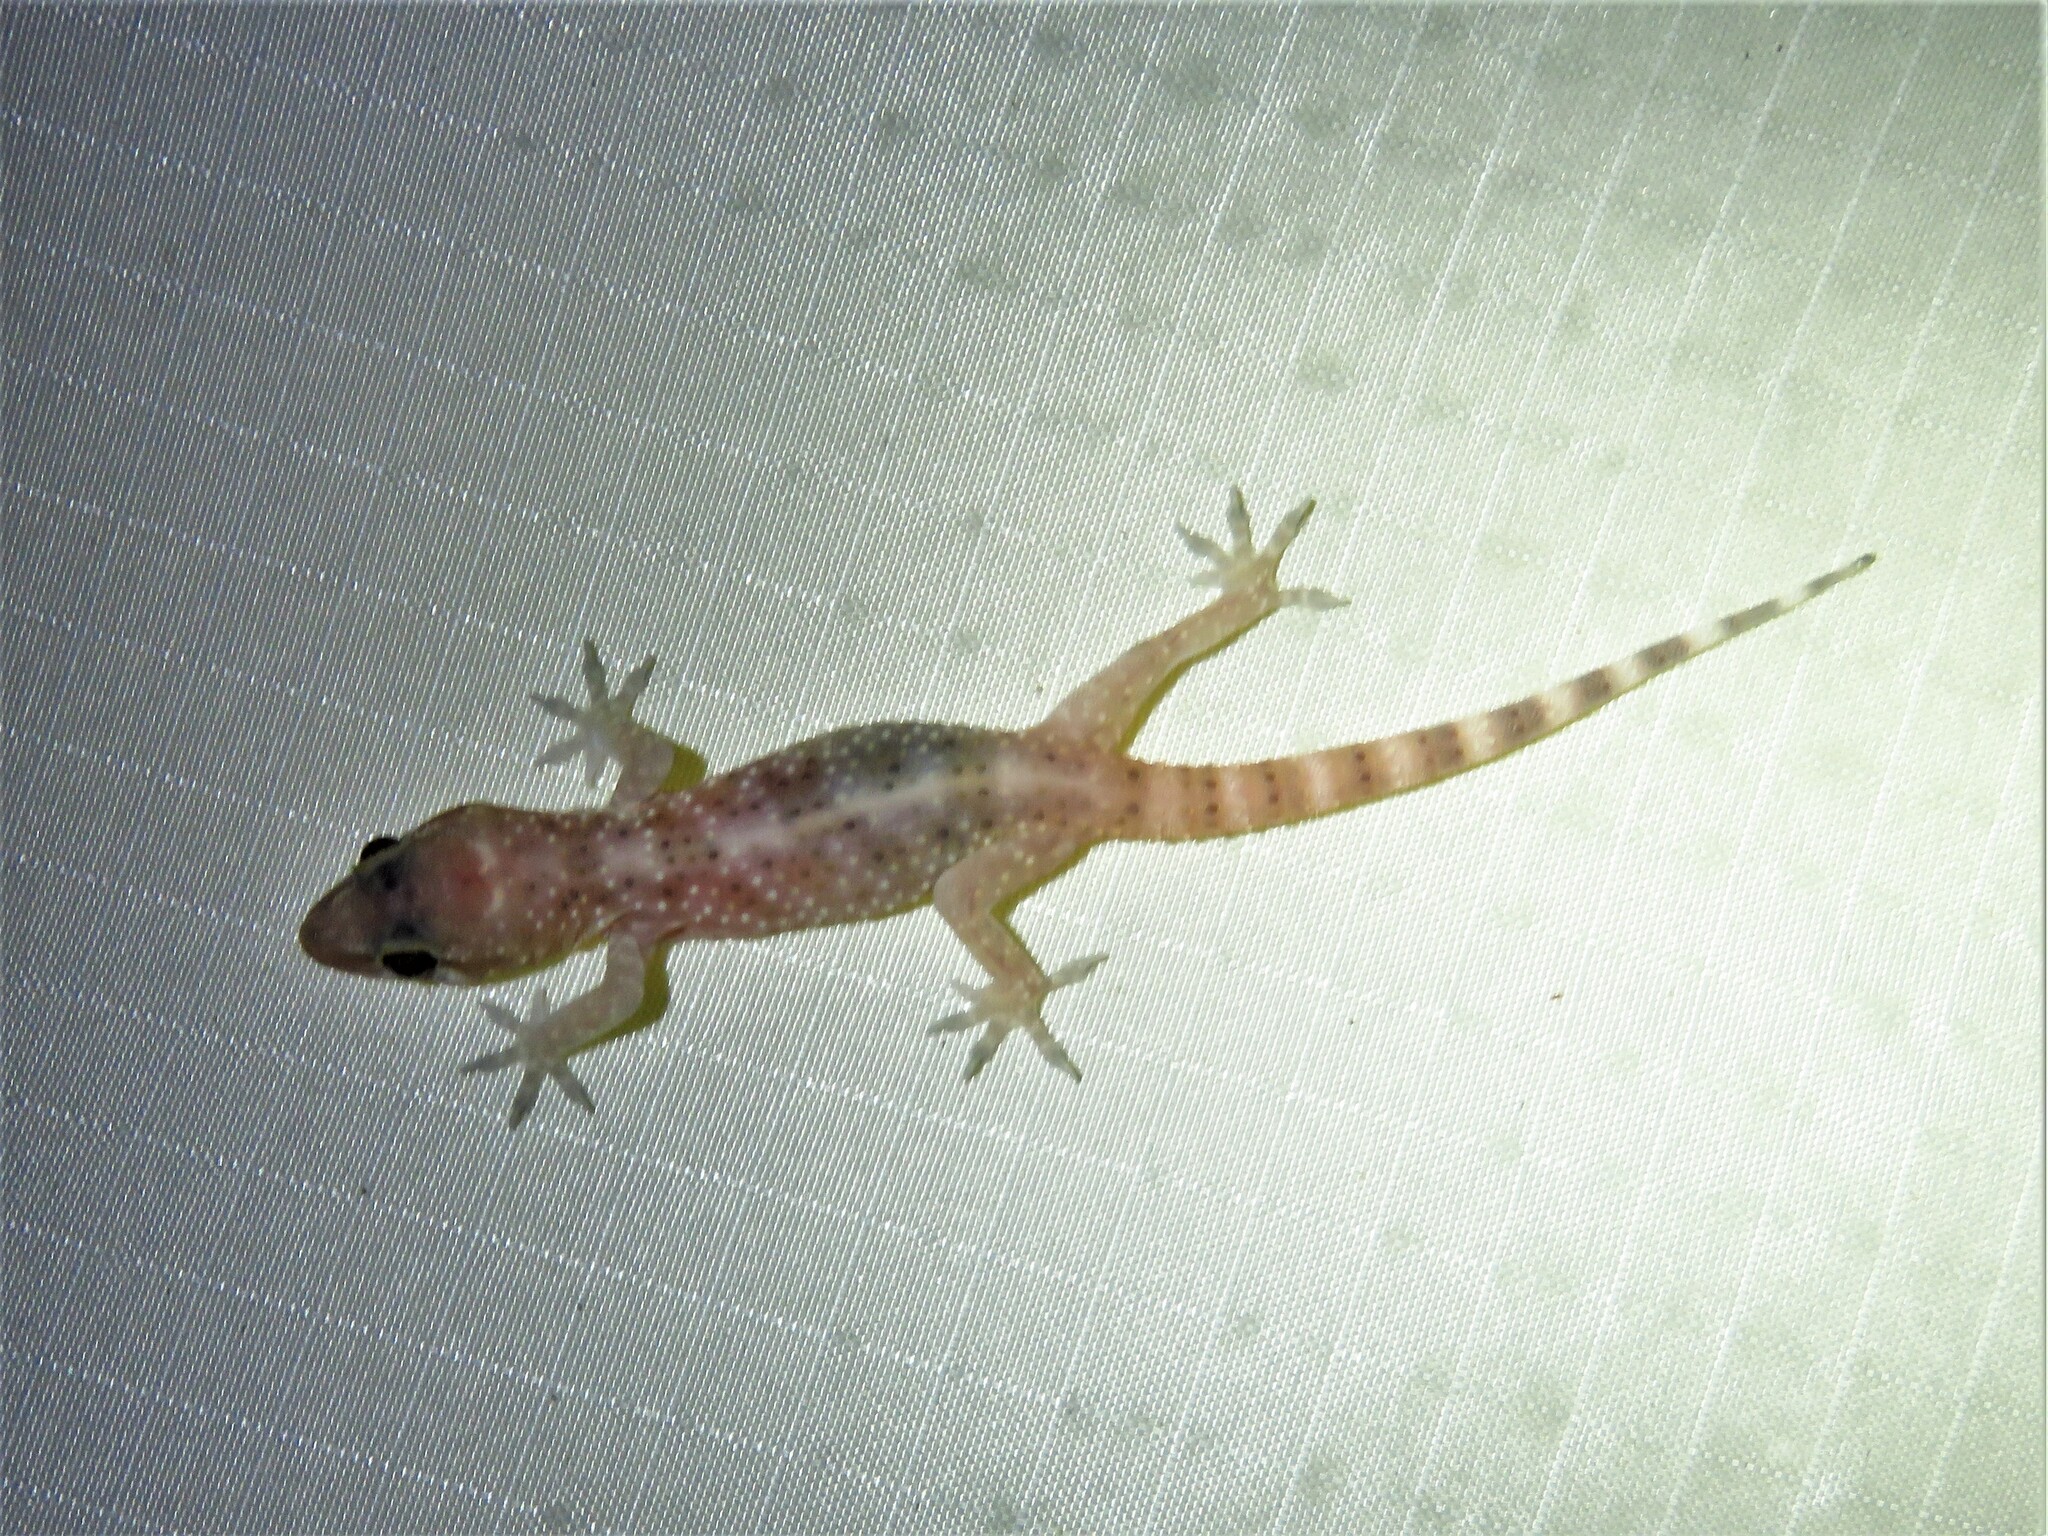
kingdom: Animalia
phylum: Chordata
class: Squamata
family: Gekkonidae
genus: Hemidactylus
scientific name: Hemidactylus turcicus
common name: Turkish gecko
